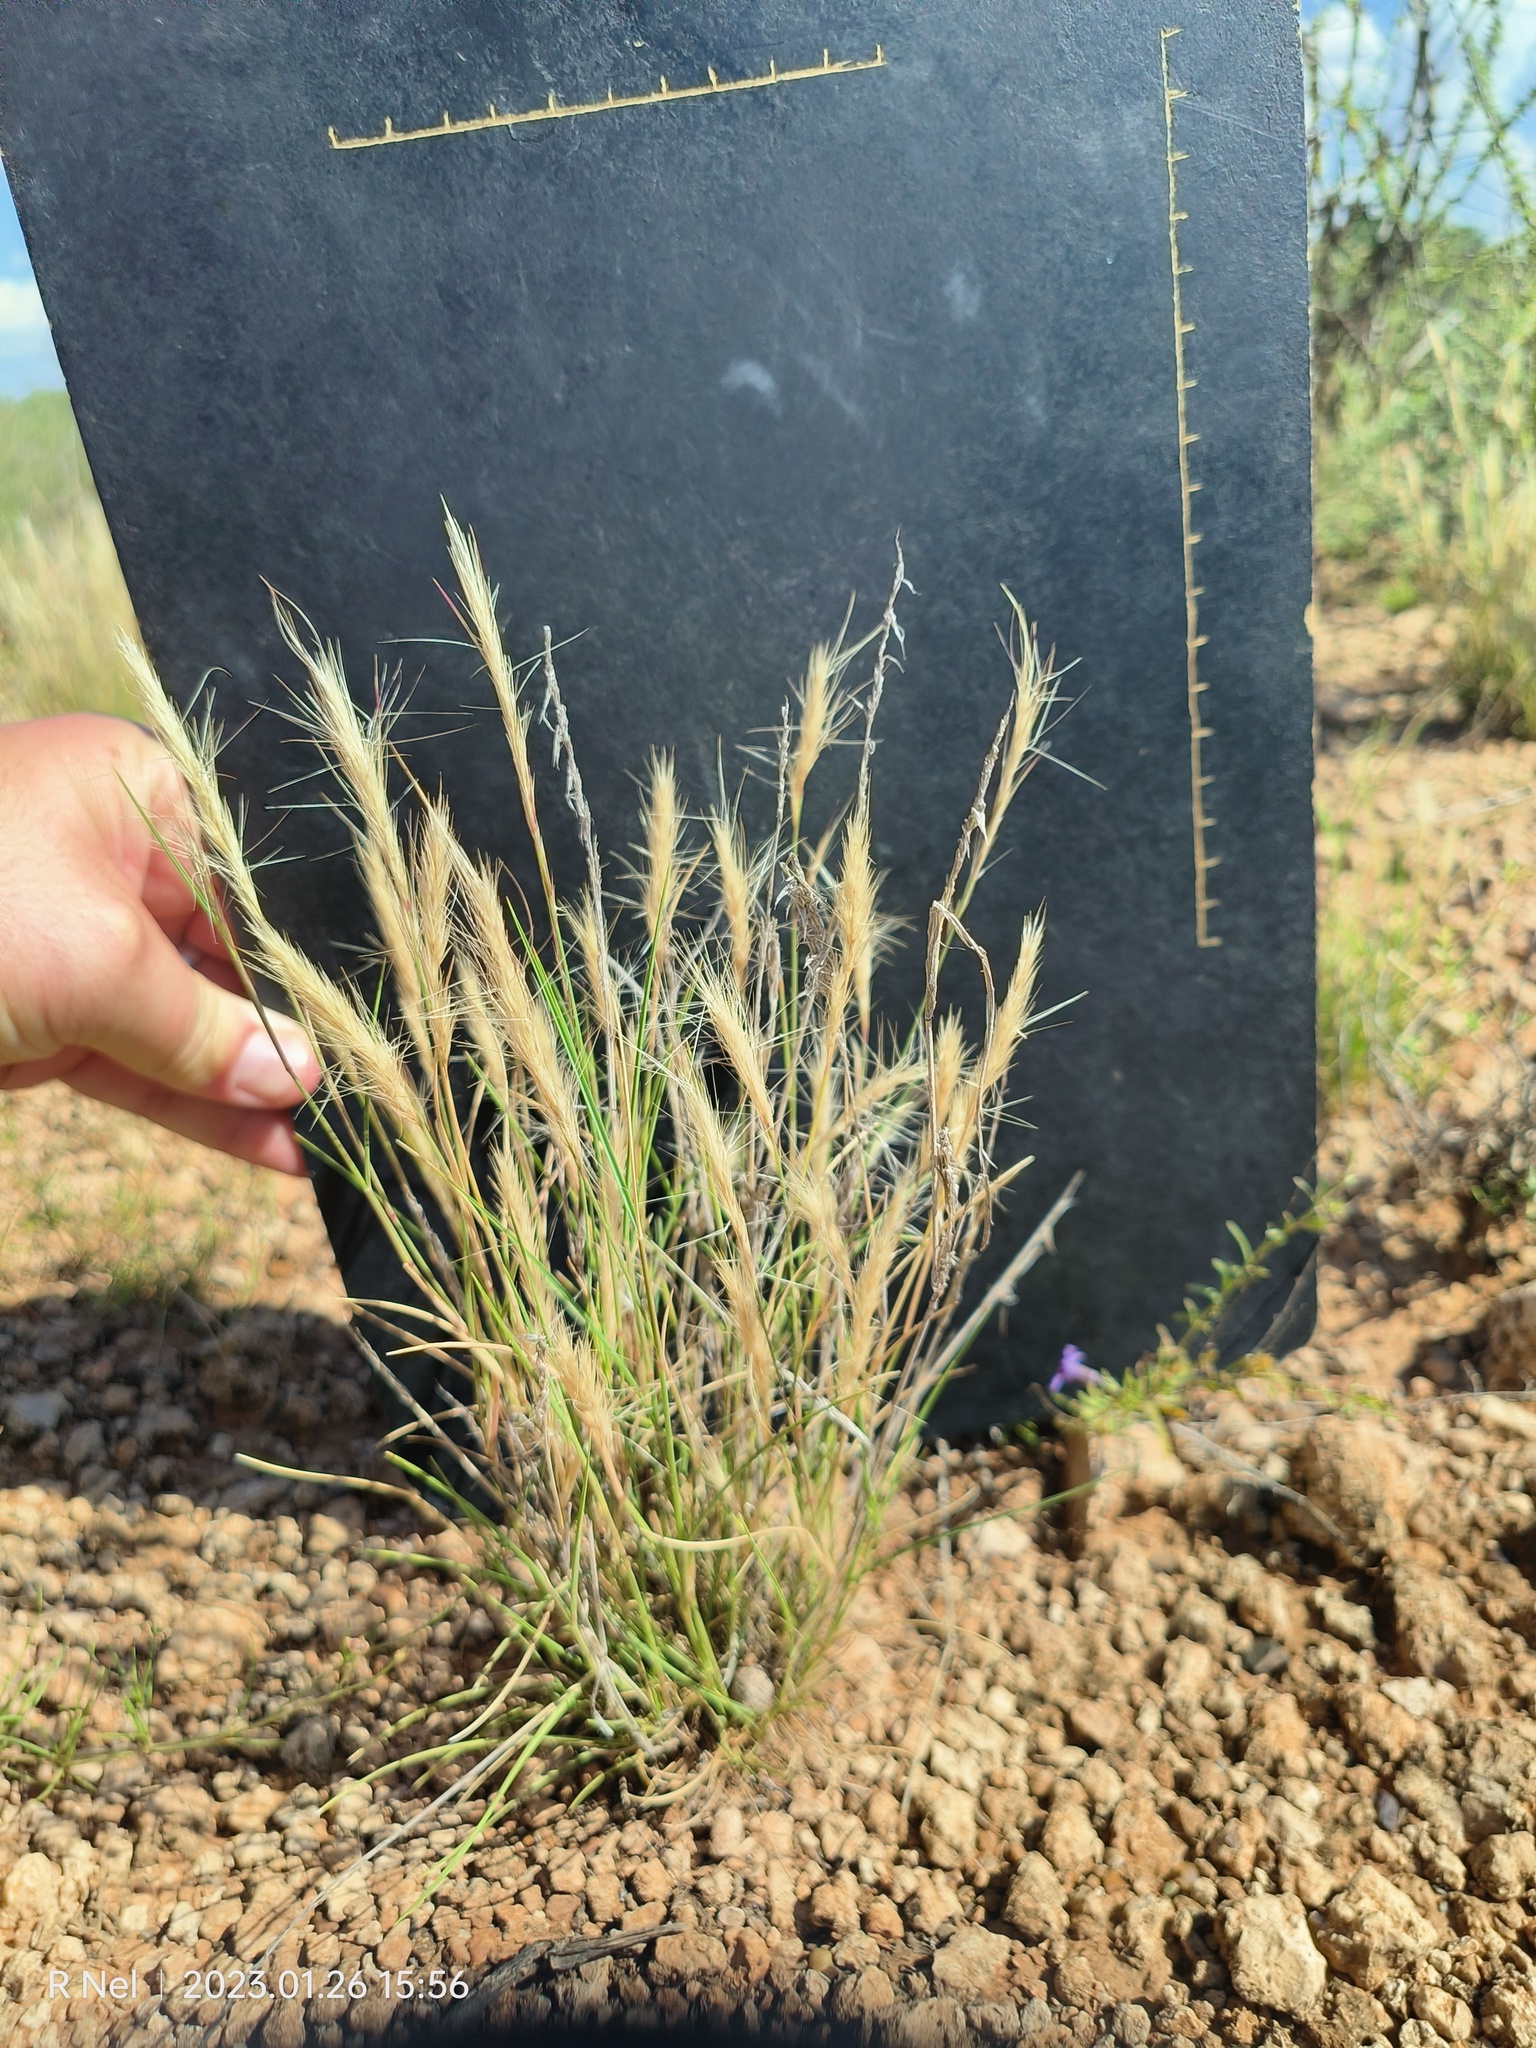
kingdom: Plantae
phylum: Tracheophyta
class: Liliopsida
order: Poales
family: Poaceae
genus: Aristida
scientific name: Aristida congesta
